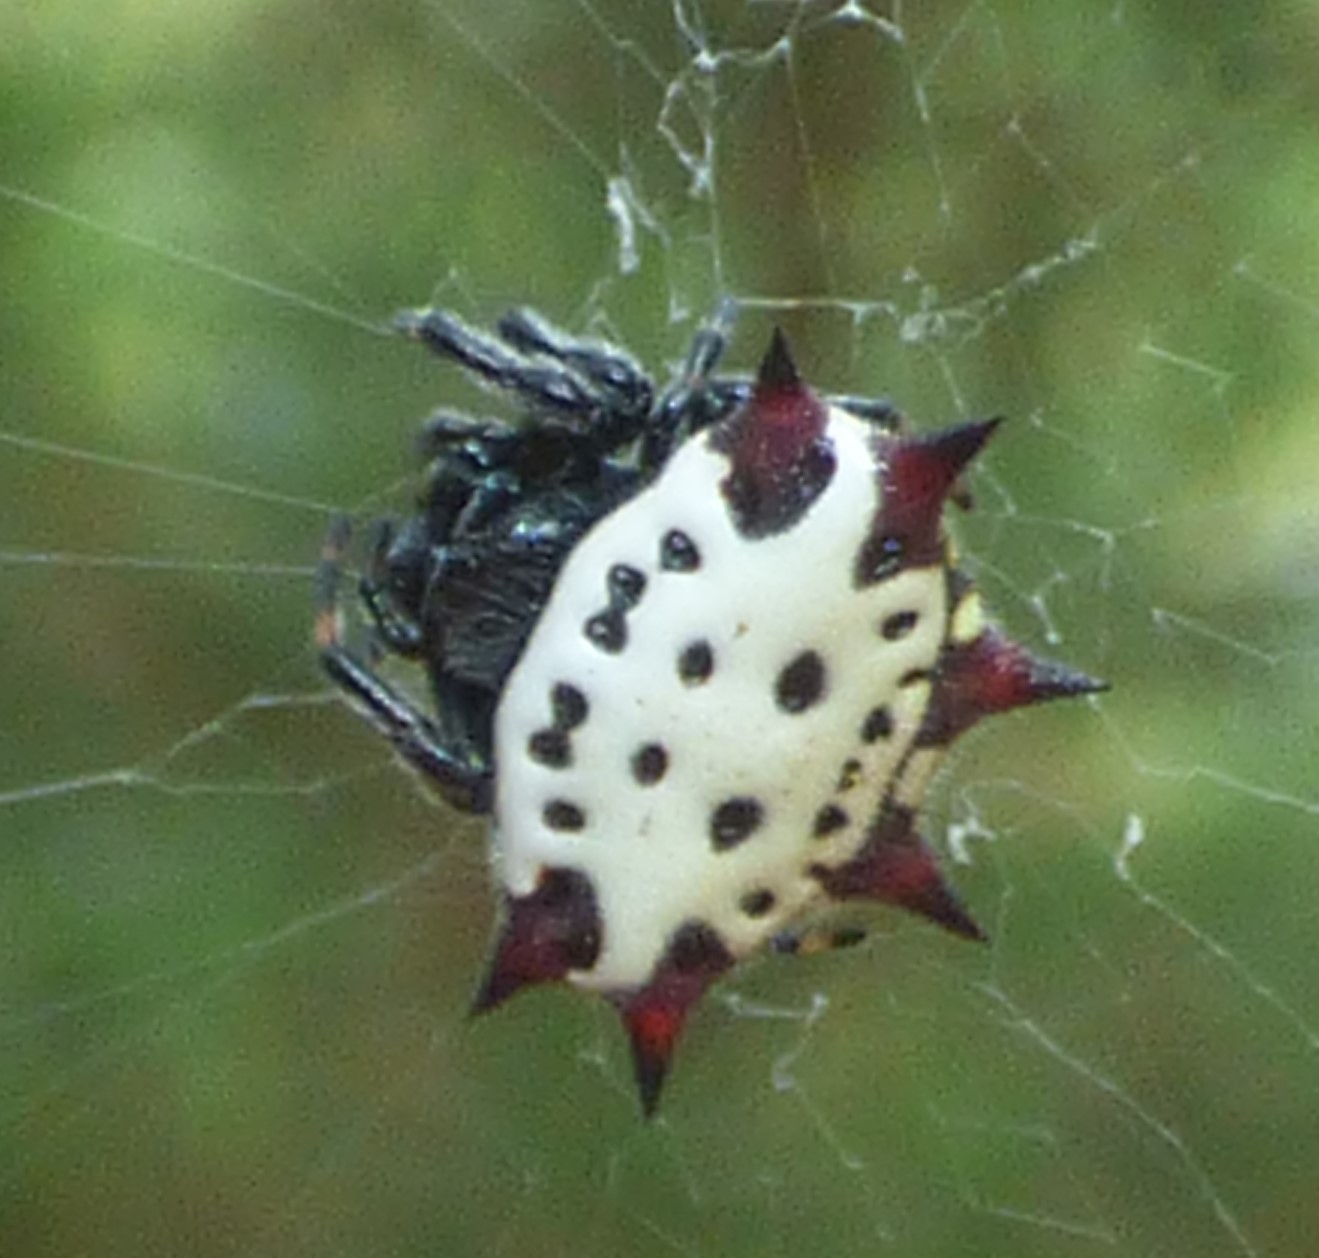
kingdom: Animalia
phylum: Arthropoda
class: Arachnida
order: Araneae
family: Araneidae
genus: Gasteracantha
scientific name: Gasteracantha cancriformis
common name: Orb weavers
